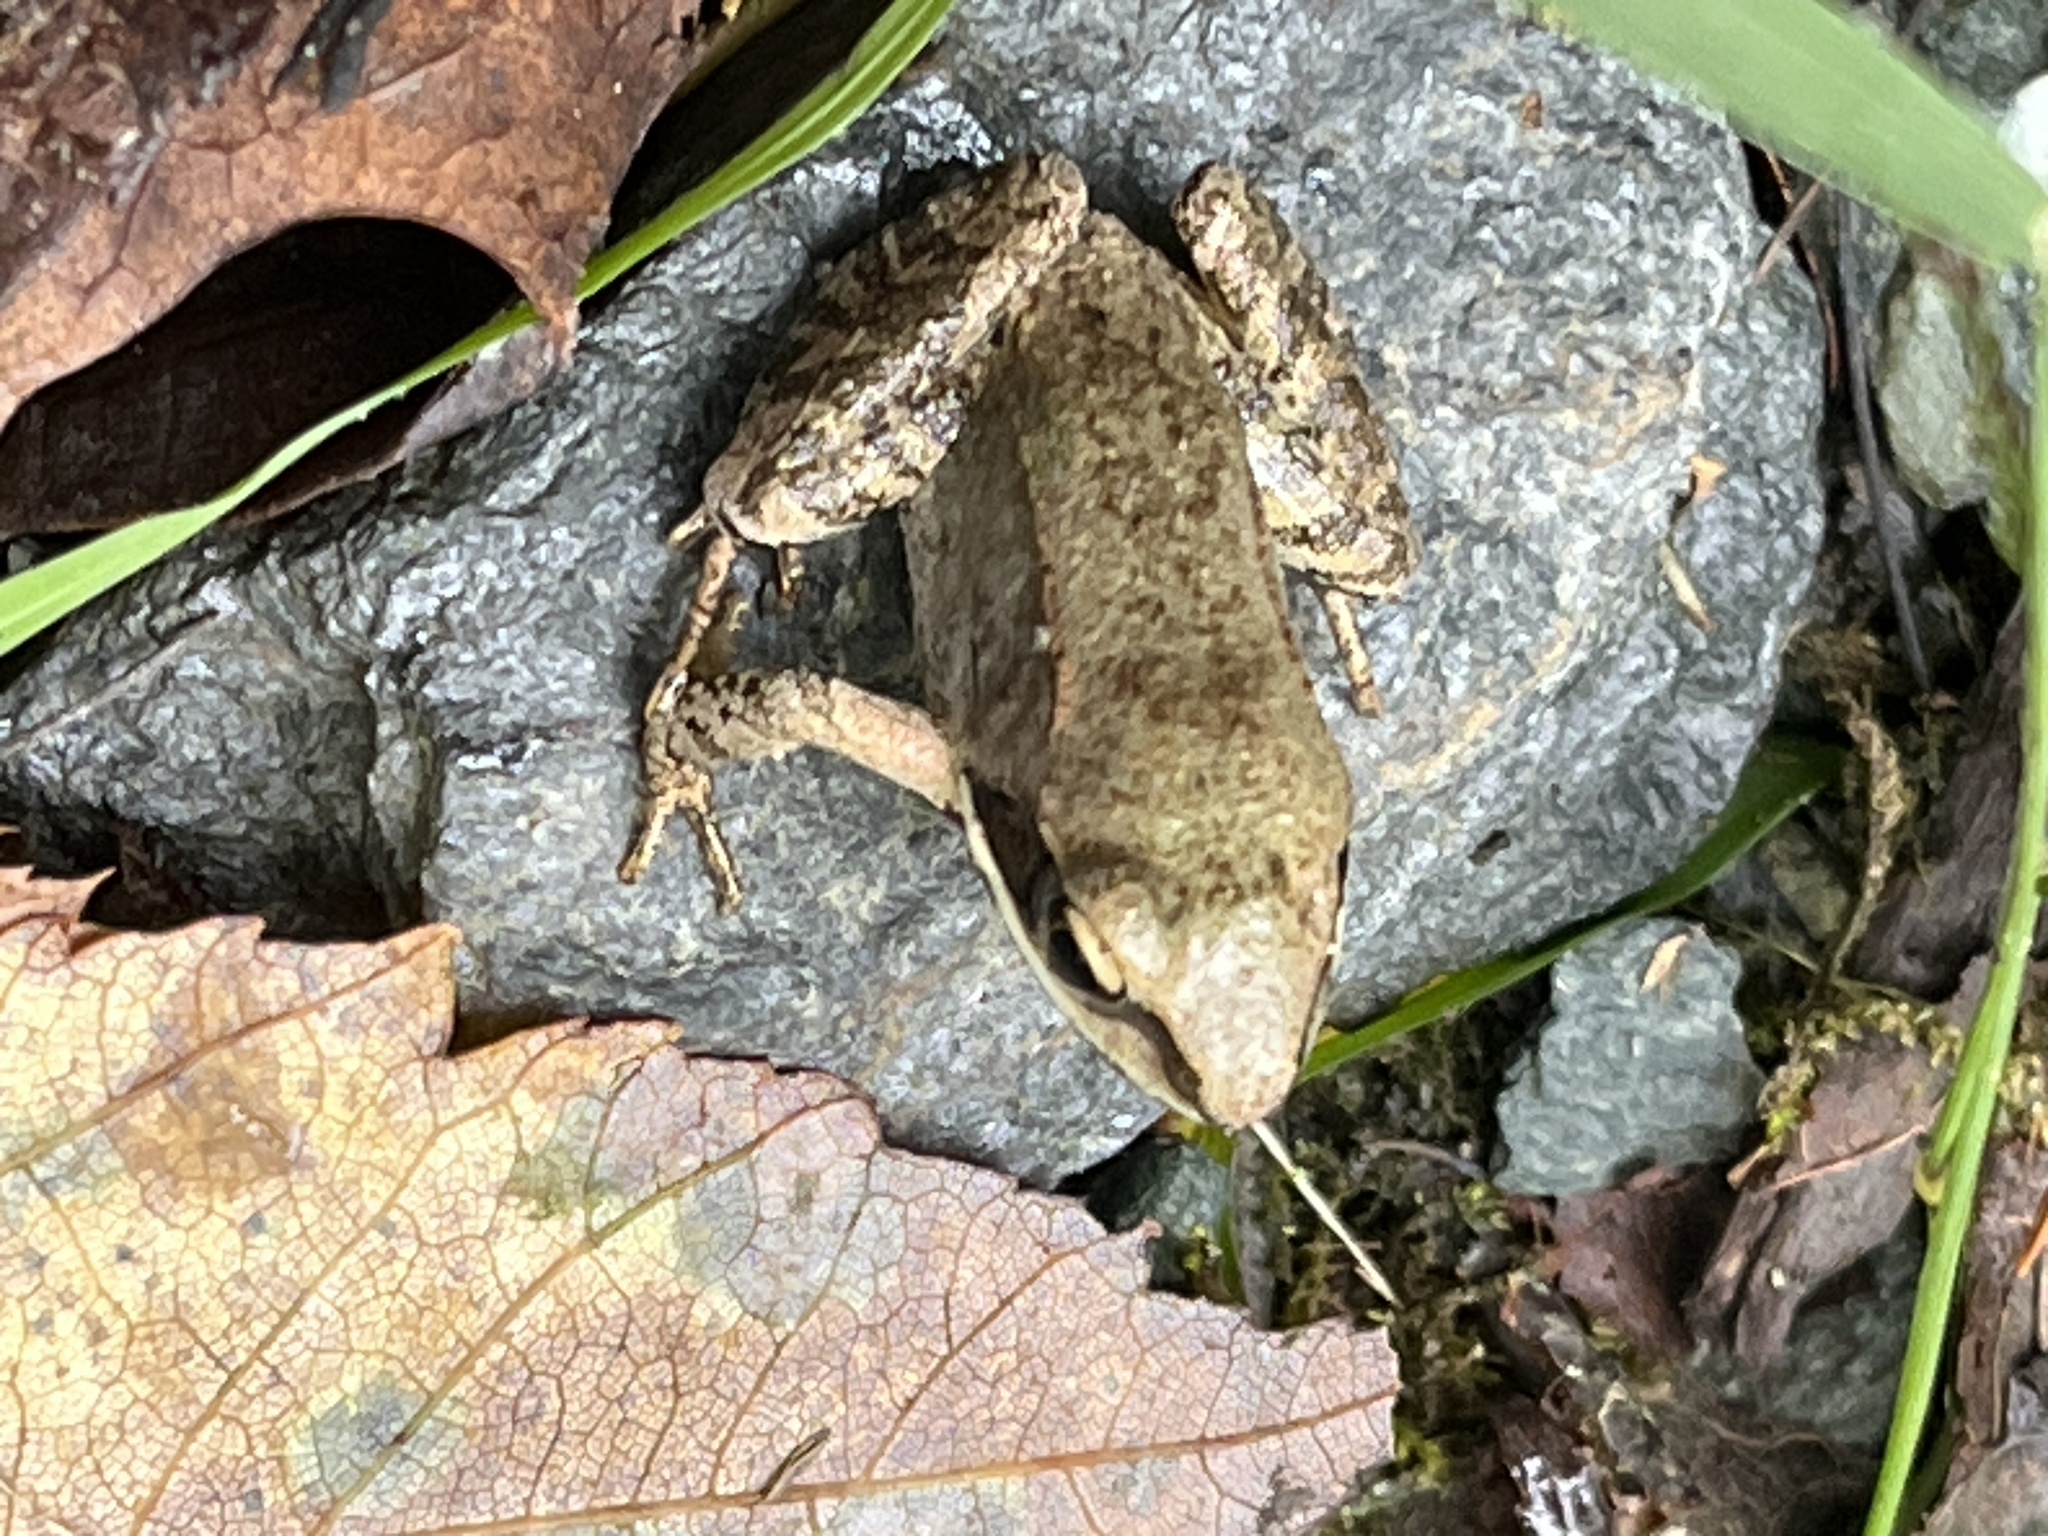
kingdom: Animalia
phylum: Chordata
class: Amphibia
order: Anura
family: Ranidae
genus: Lithobates
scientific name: Lithobates sylvaticus
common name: Wood frog
